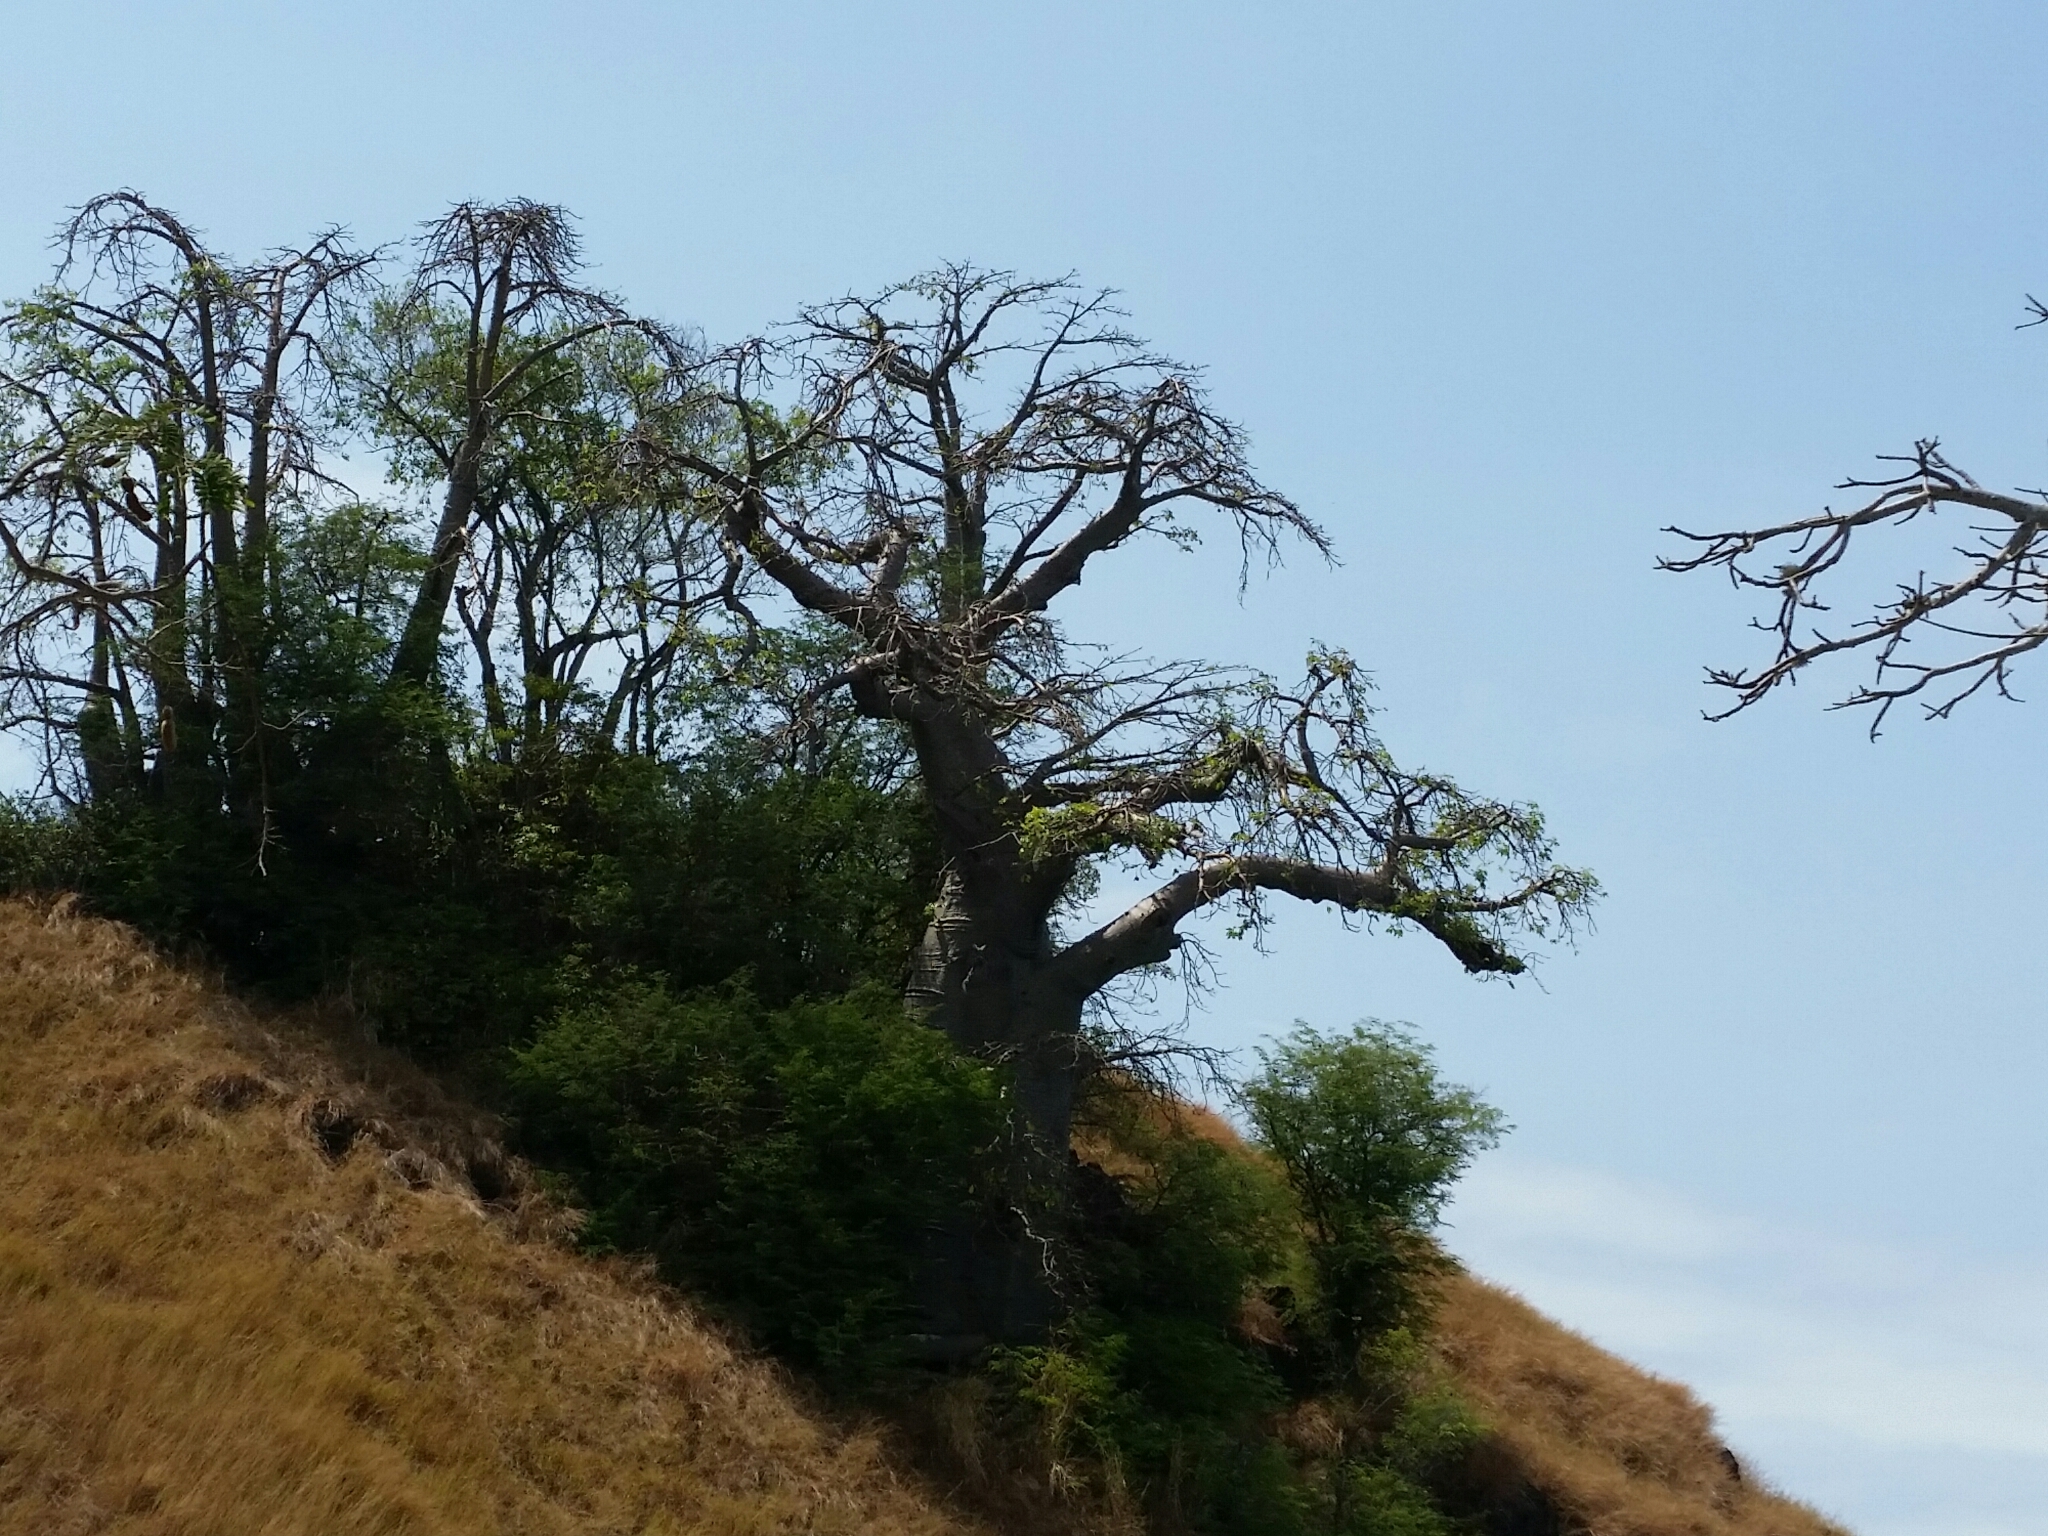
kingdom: Plantae
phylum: Tracheophyta
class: Magnoliopsida
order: Malvales
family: Malvaceae
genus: Adansonia
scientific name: Adansonia digitata
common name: Dead-rat-tree
